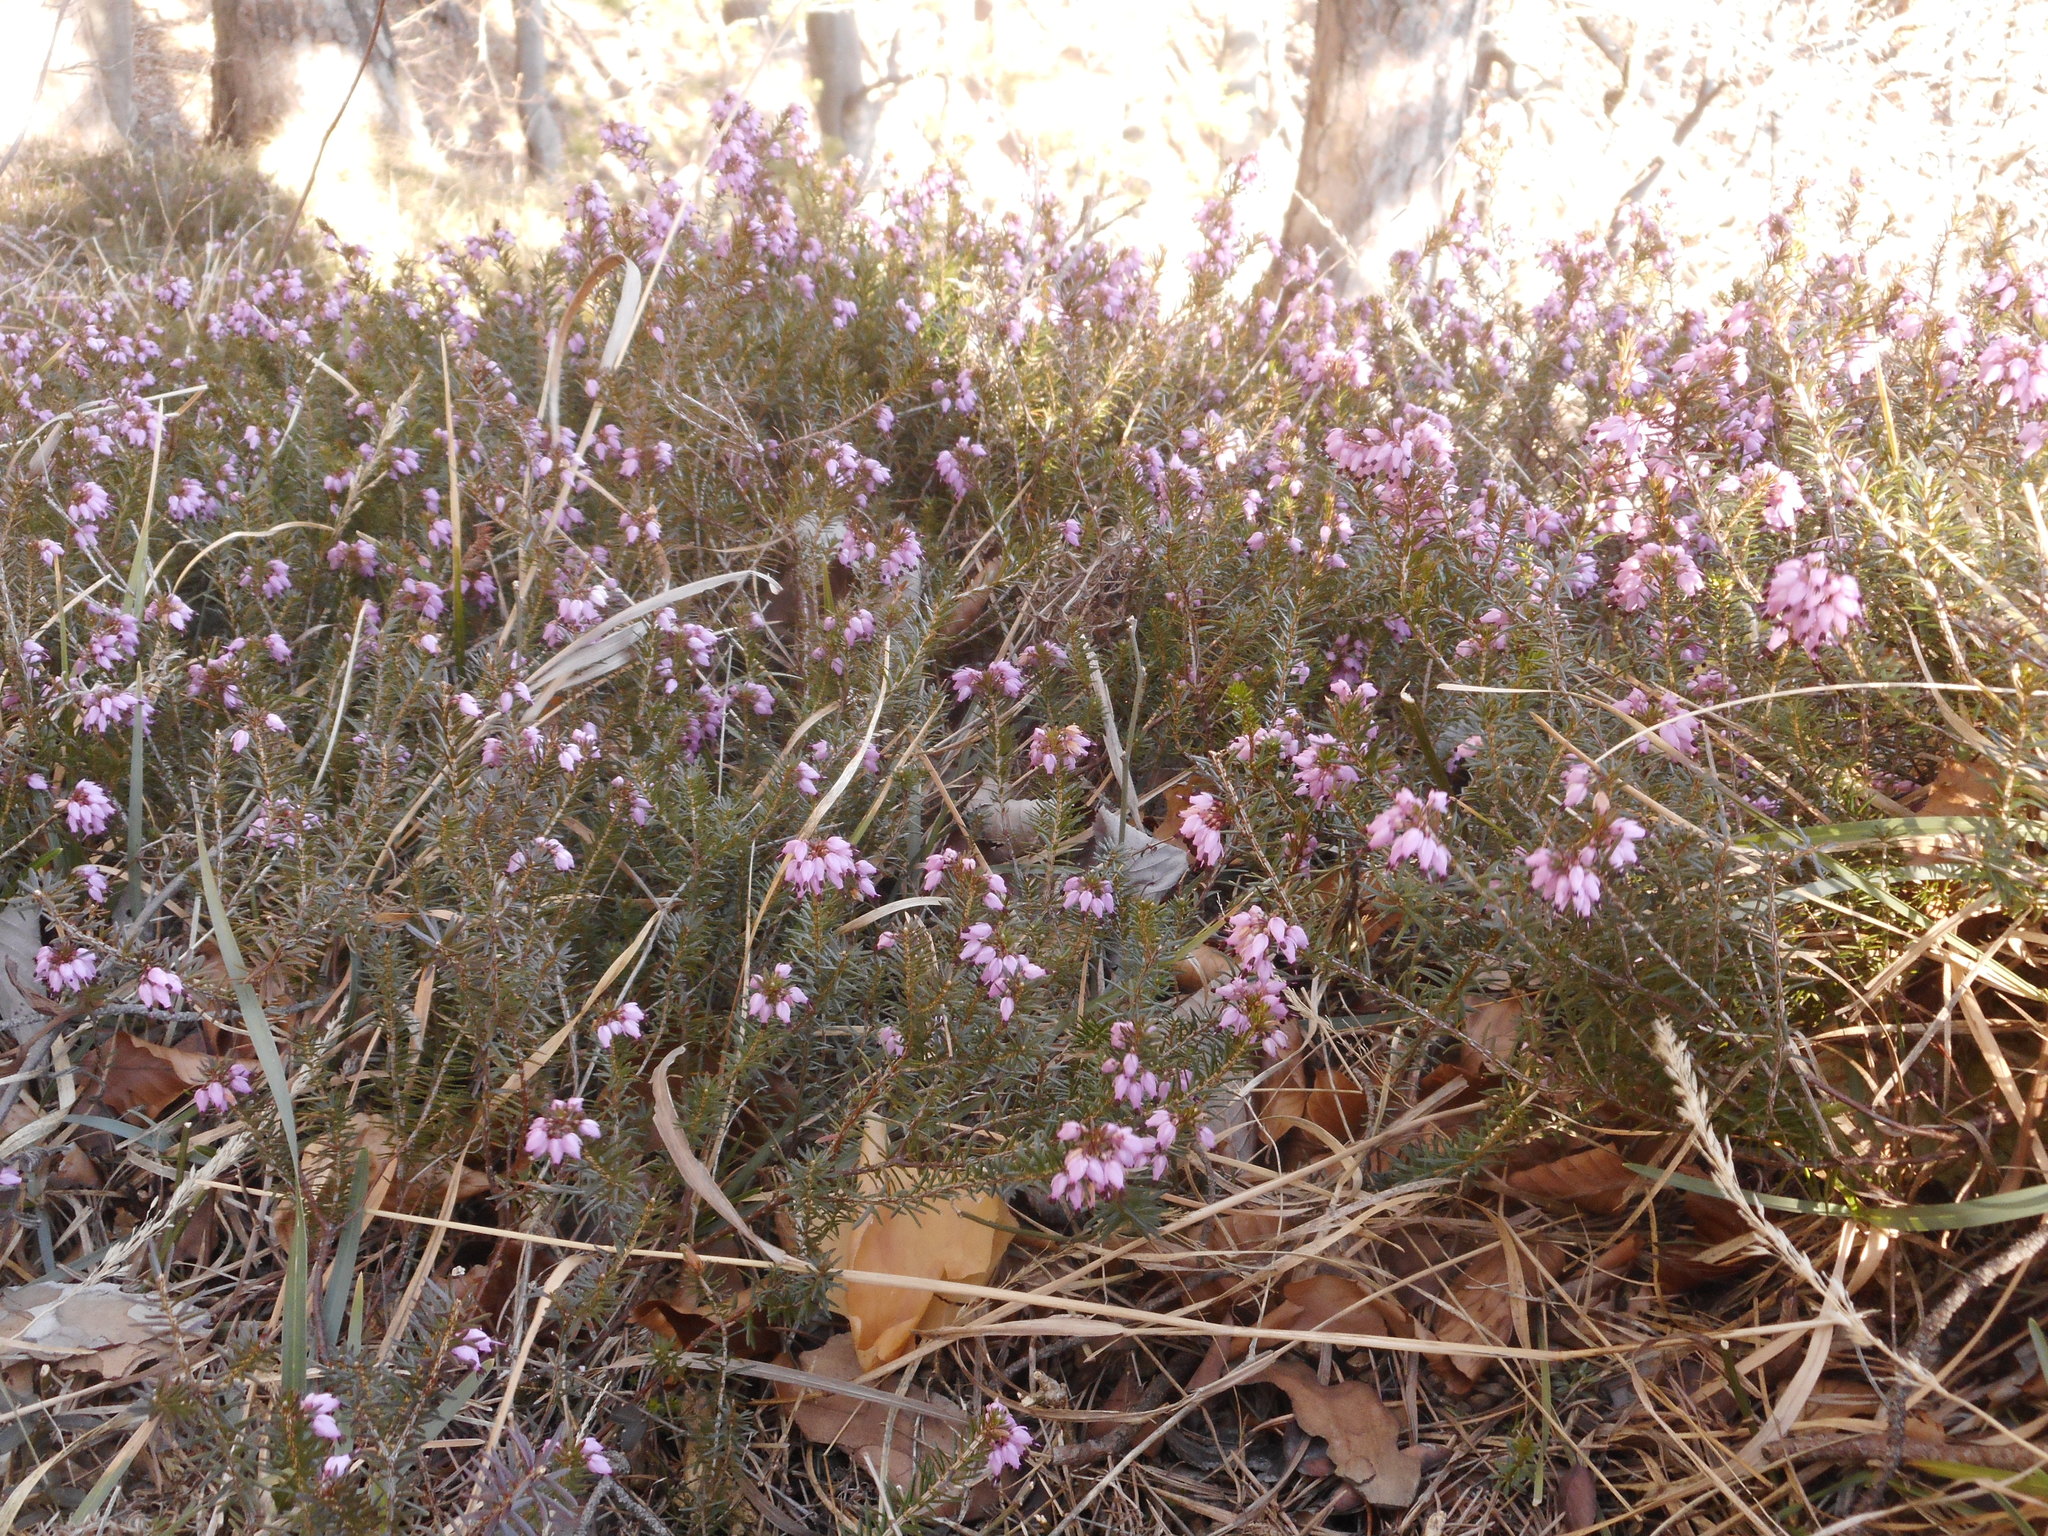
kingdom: Plantae
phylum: Tracheophyta
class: Magnoliopsida
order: Ericales
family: Ericaceae
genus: Erica
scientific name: Erica carnea
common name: Winter heath
